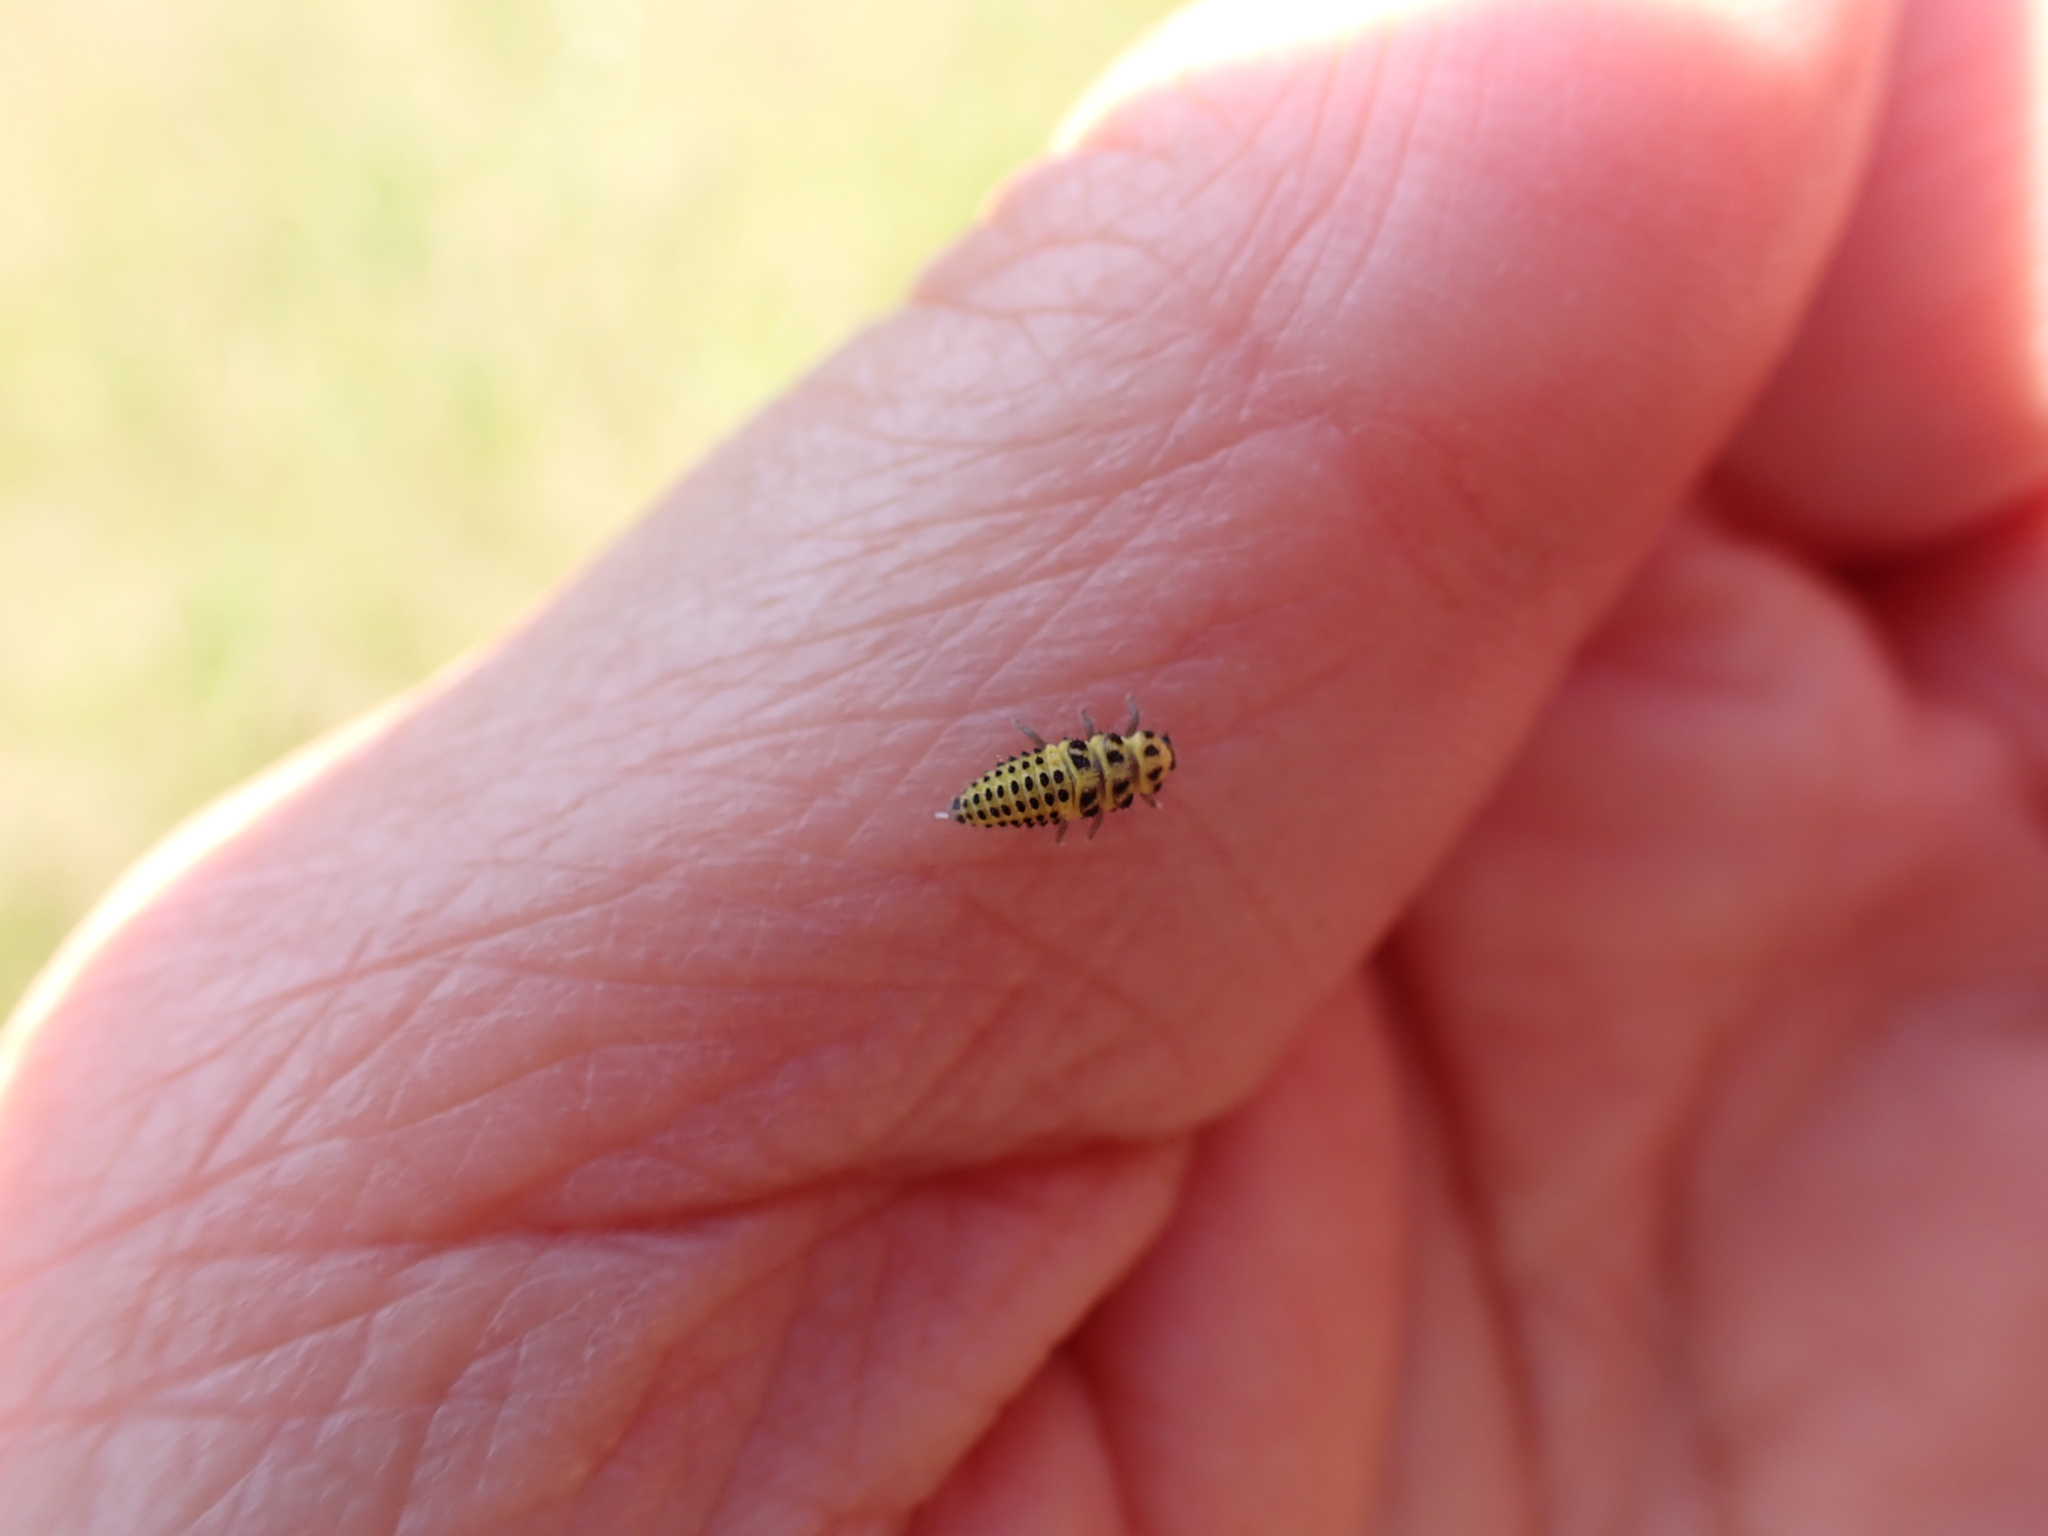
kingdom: Animalia
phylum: Arthropoda
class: Insecta
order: Coleoptera
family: Coccinellidae
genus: Psyllobora
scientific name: Psyllobora vigintiduopunctata
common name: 22-spot ladybird
